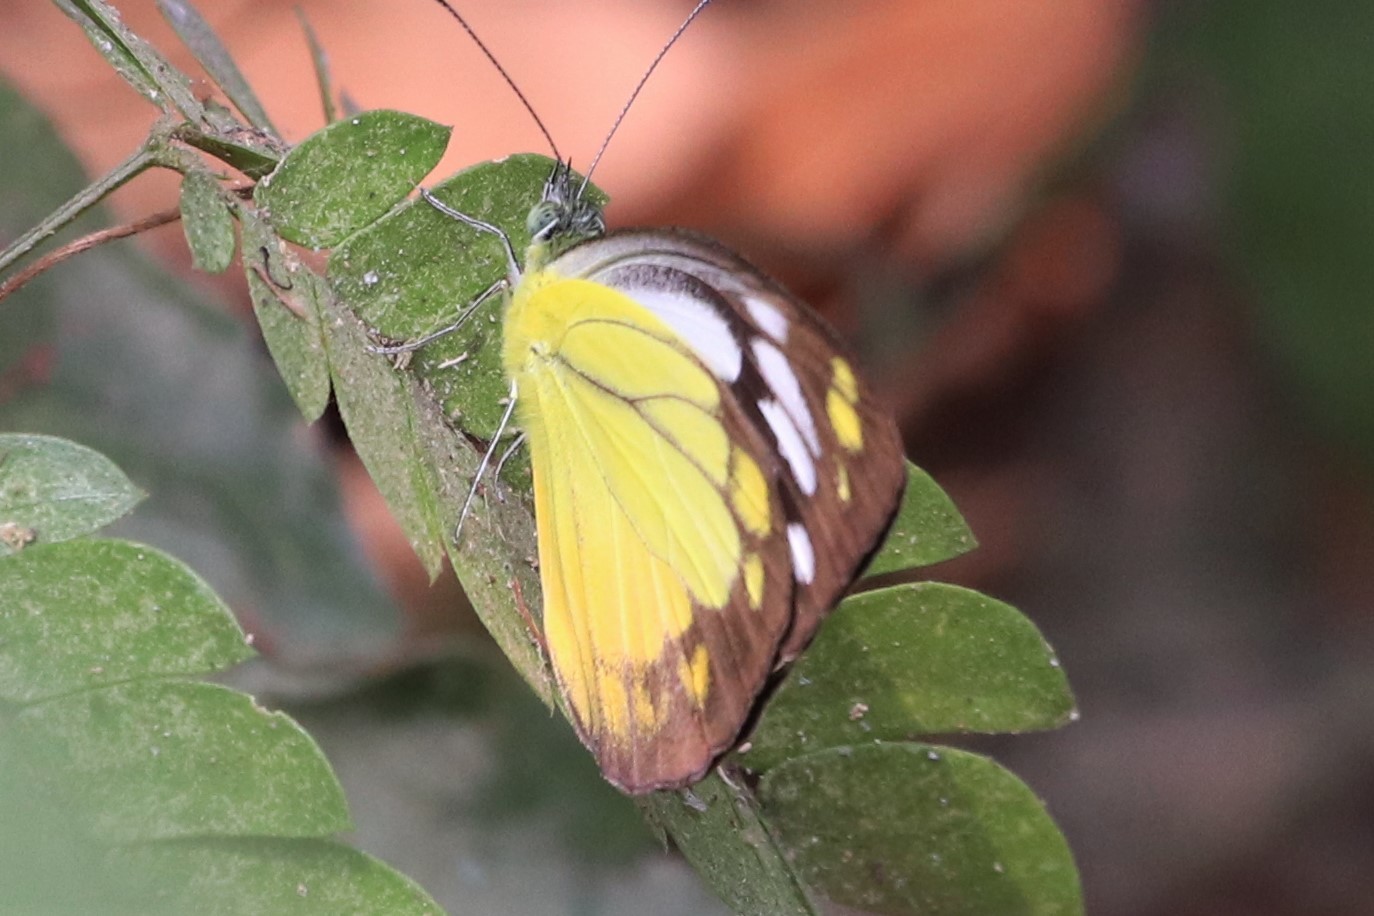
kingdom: Animalia
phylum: Arthropoda
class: Insecta
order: Lepidoptera
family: Pieridae
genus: Cepora
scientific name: Cepora iudith
